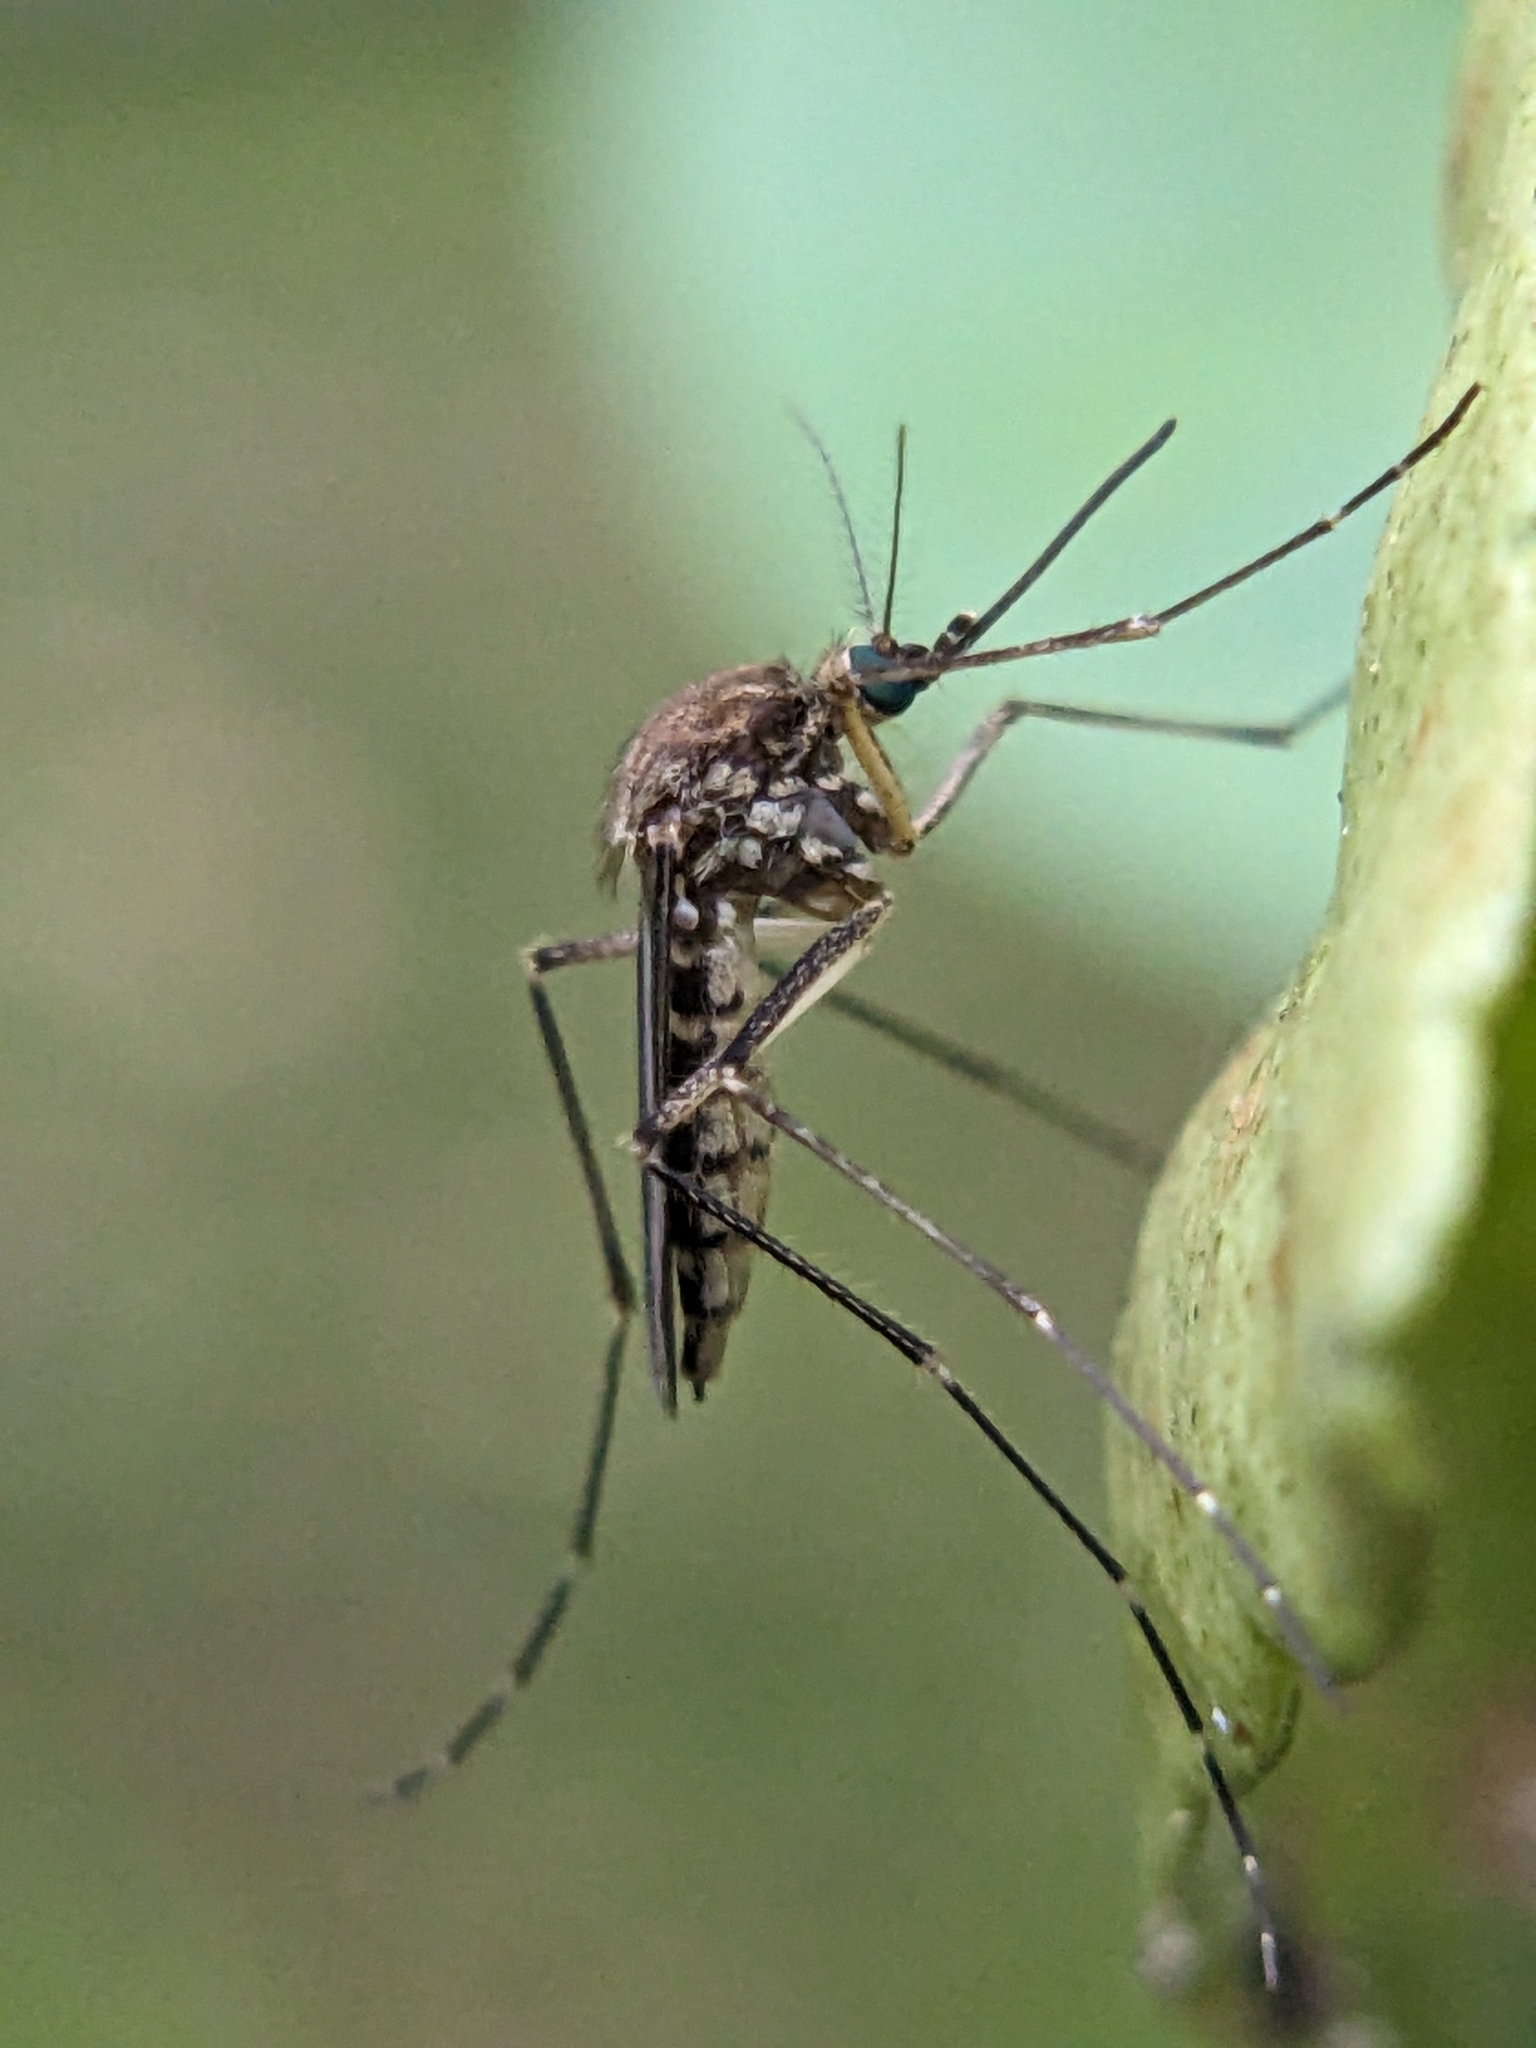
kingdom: Animalia
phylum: Arthropoda
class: Insecta
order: Diptera
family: Culicidae
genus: Aedes
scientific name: Aedes vexans
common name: Inland floodwater mosquito
